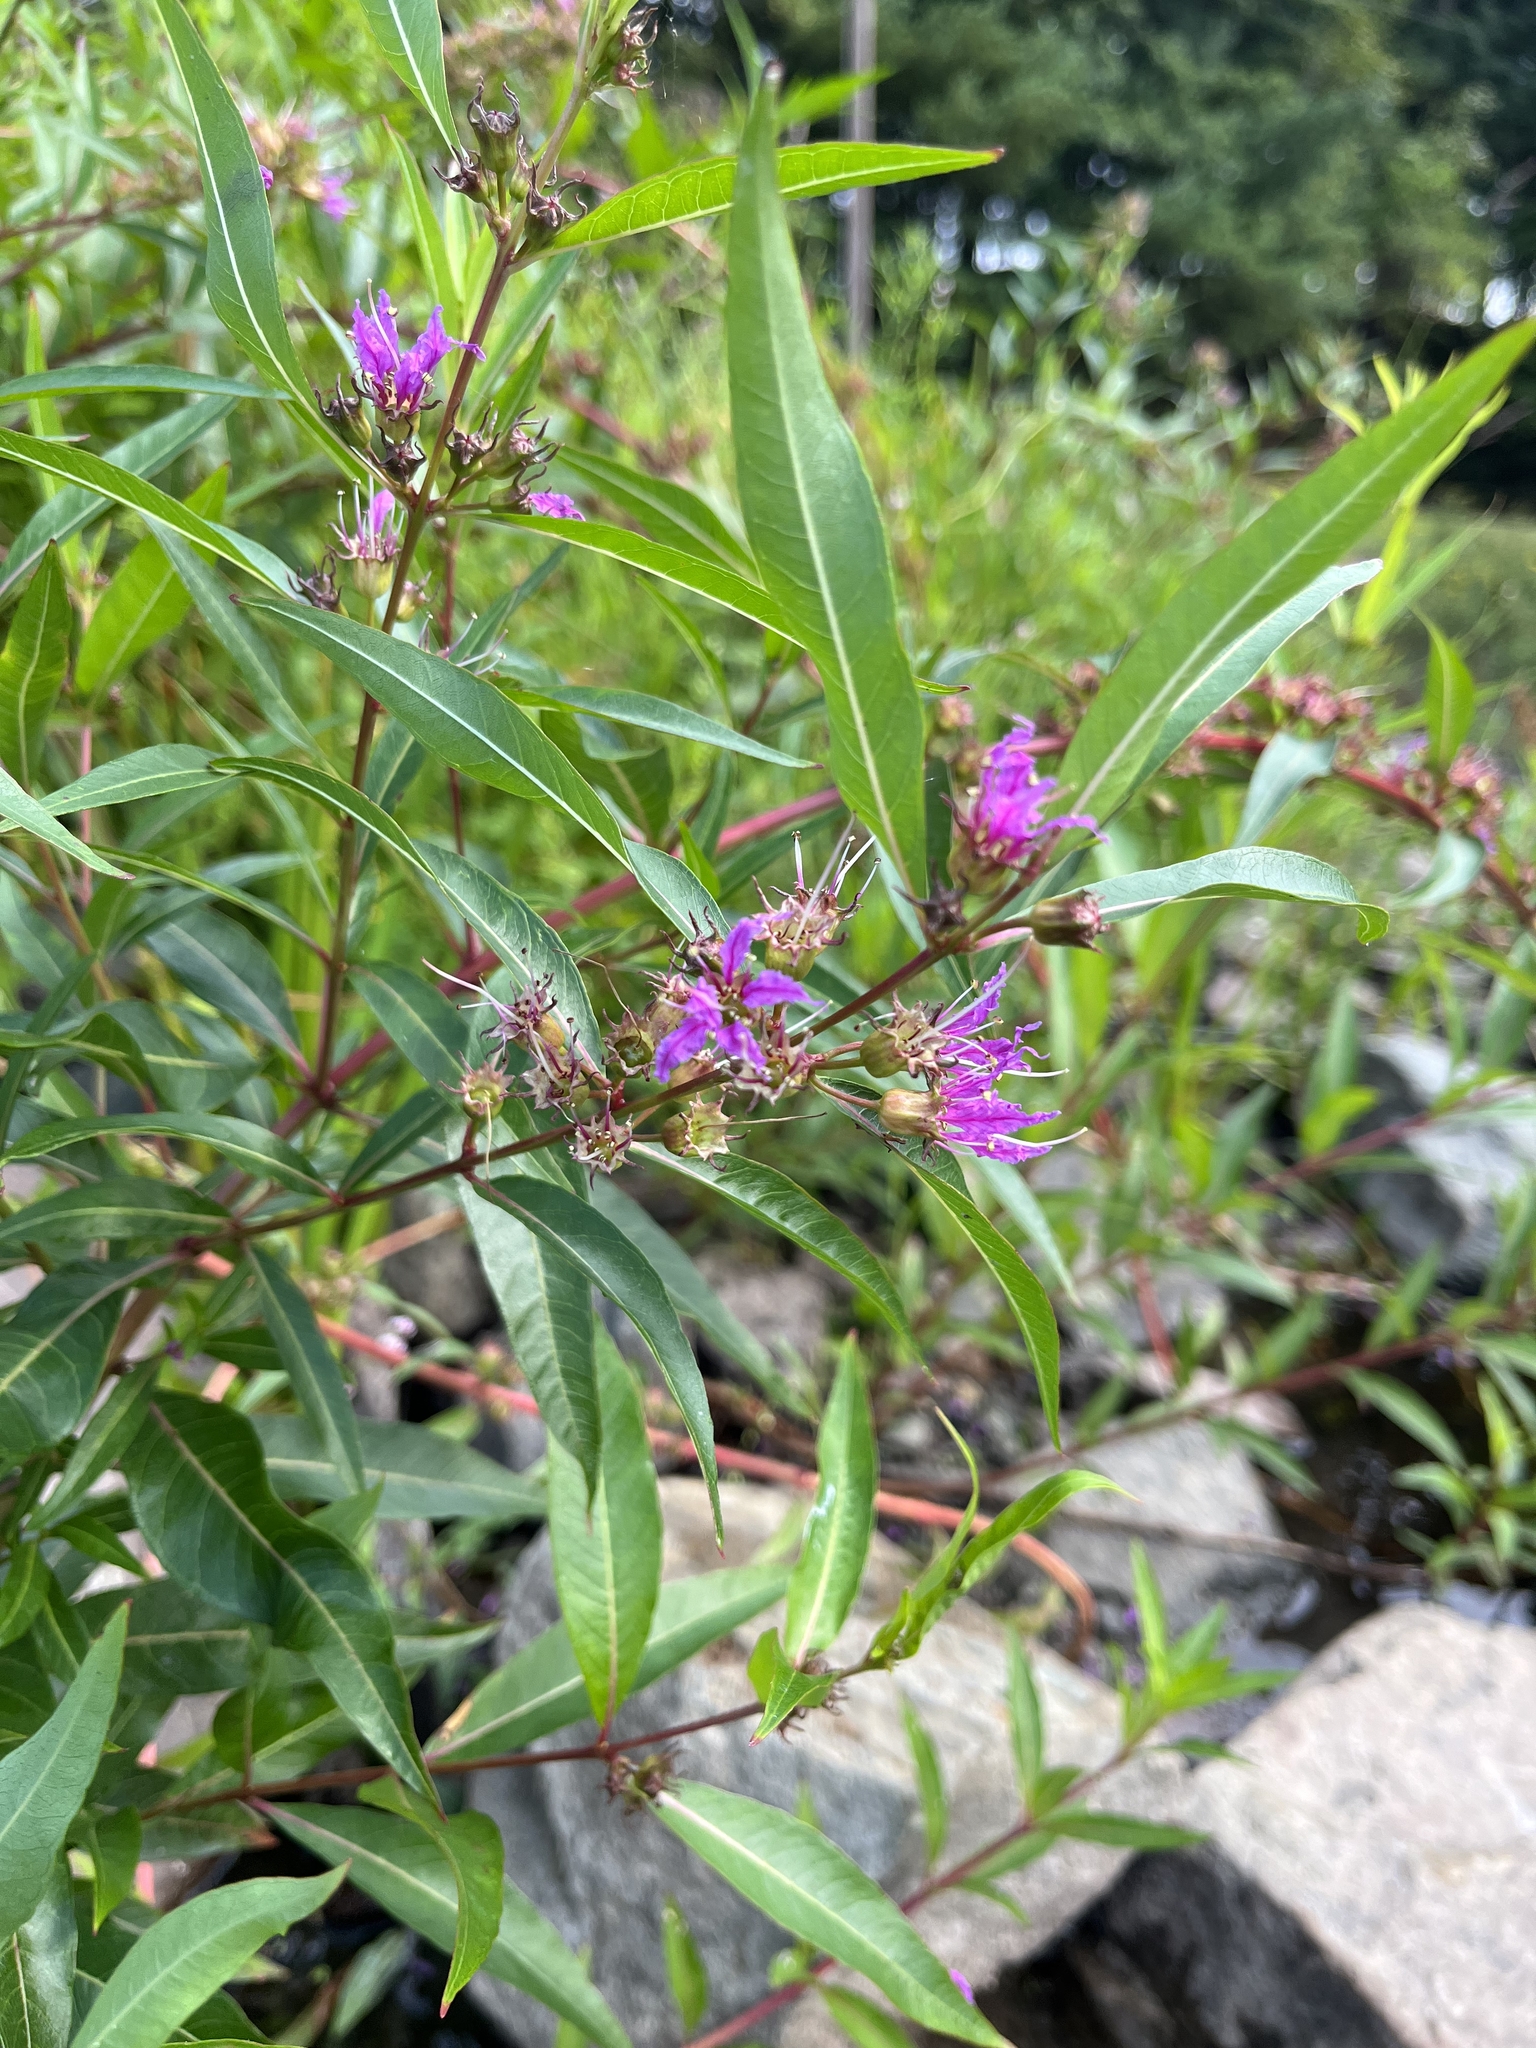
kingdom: Plantae
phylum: Tracheophyta
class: Magnoliopsida
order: Myrtales
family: Lythraceae
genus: Decodon
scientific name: Decodon verticillatus
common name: Hairy swamp loosestrife
